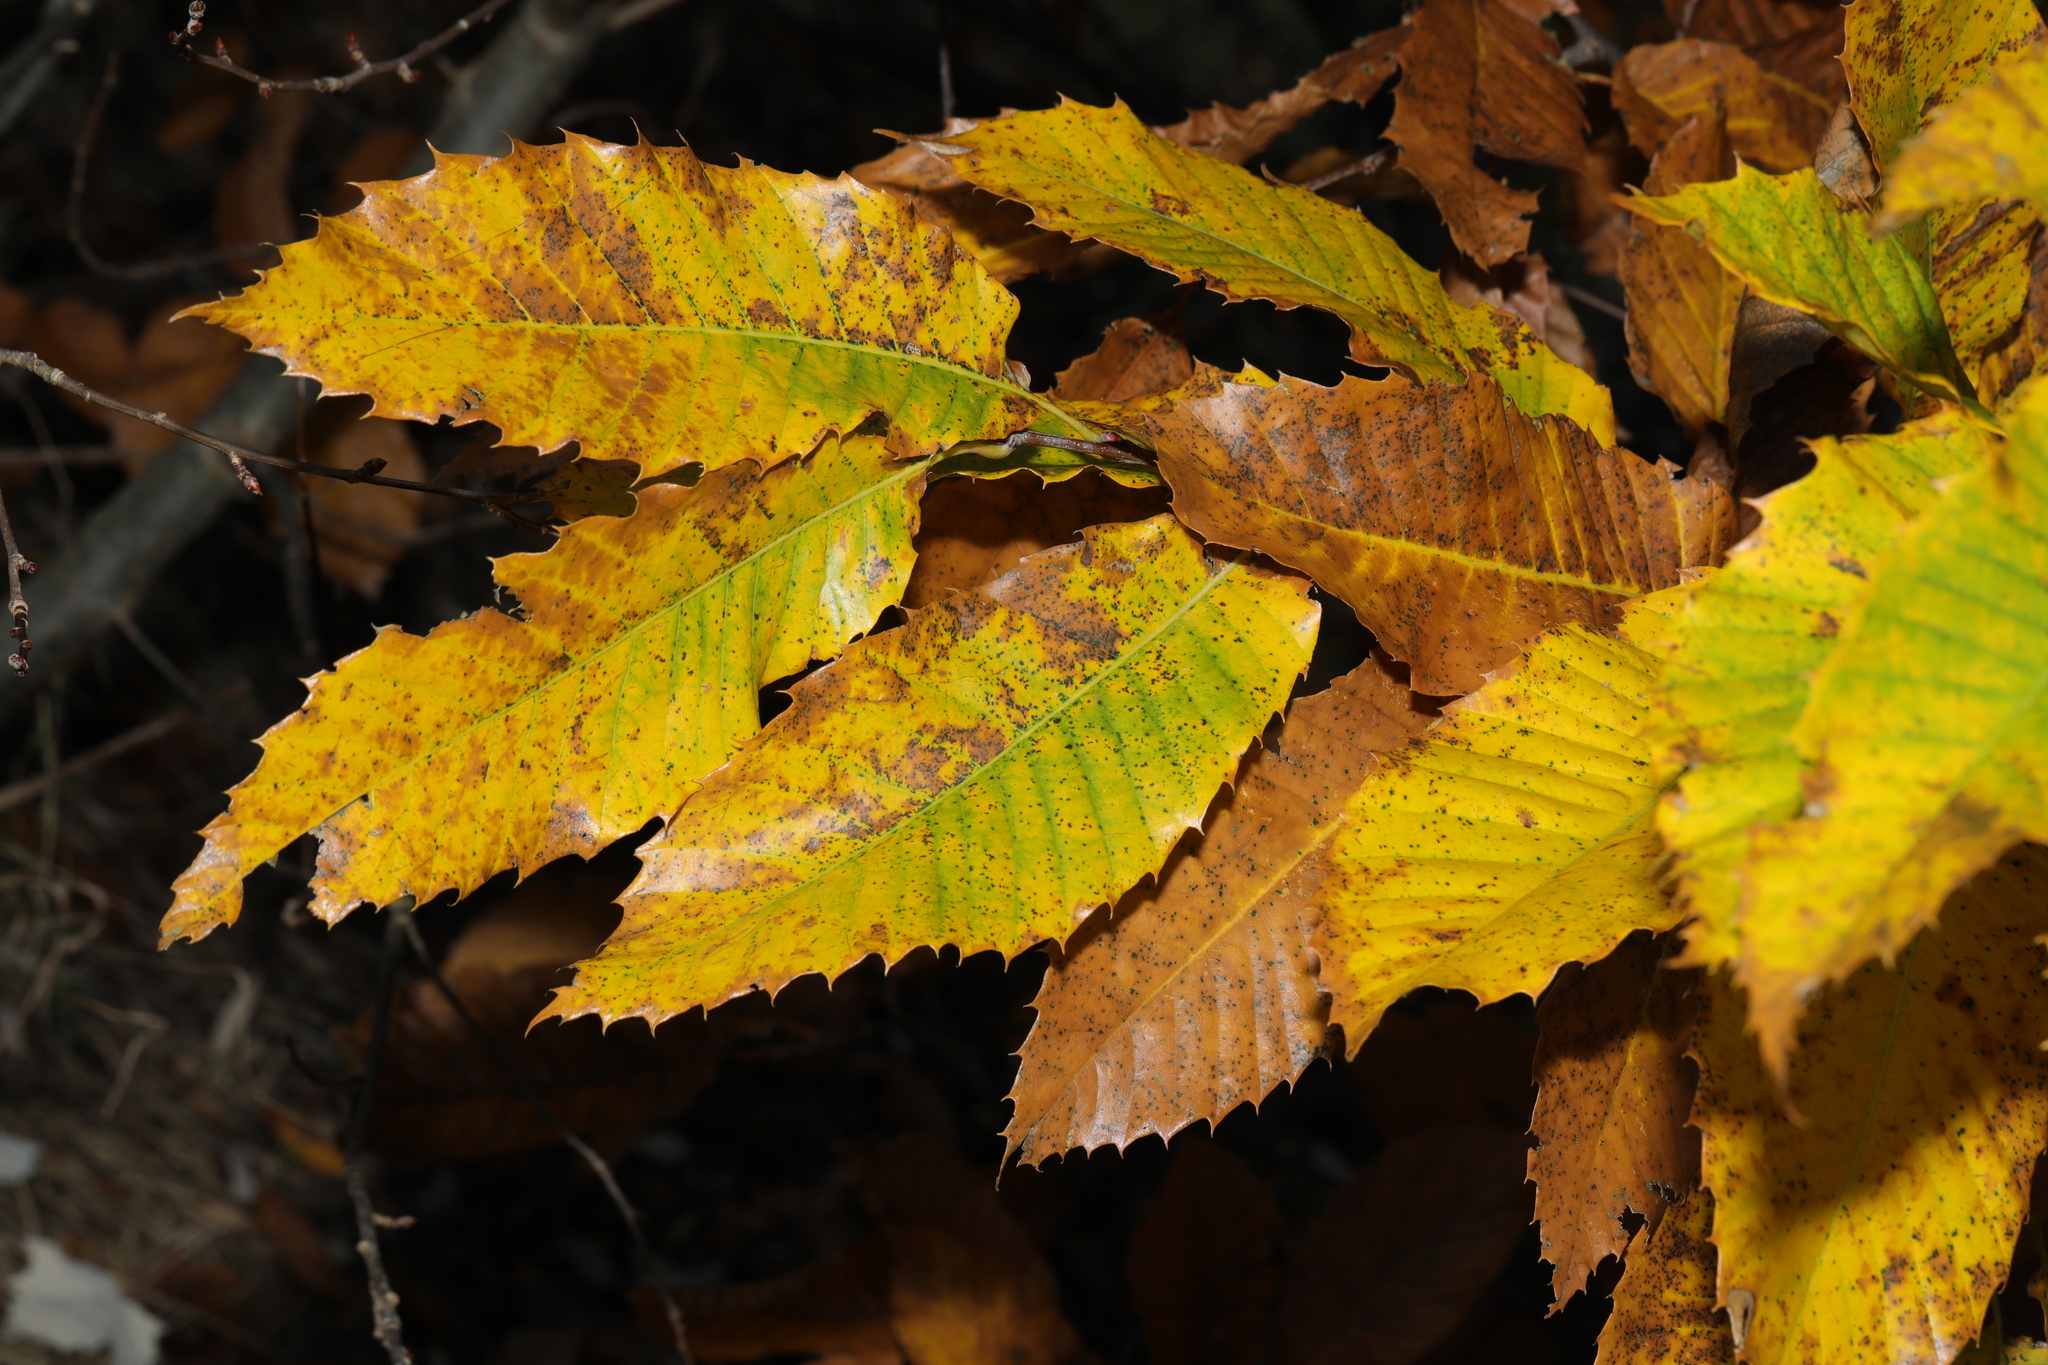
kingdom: Plantae
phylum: Tracheophyta
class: Magnoliopsida
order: Fagales
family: Fagaceae
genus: Castanea
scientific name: Castanea sativa
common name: Sweet chestnut
